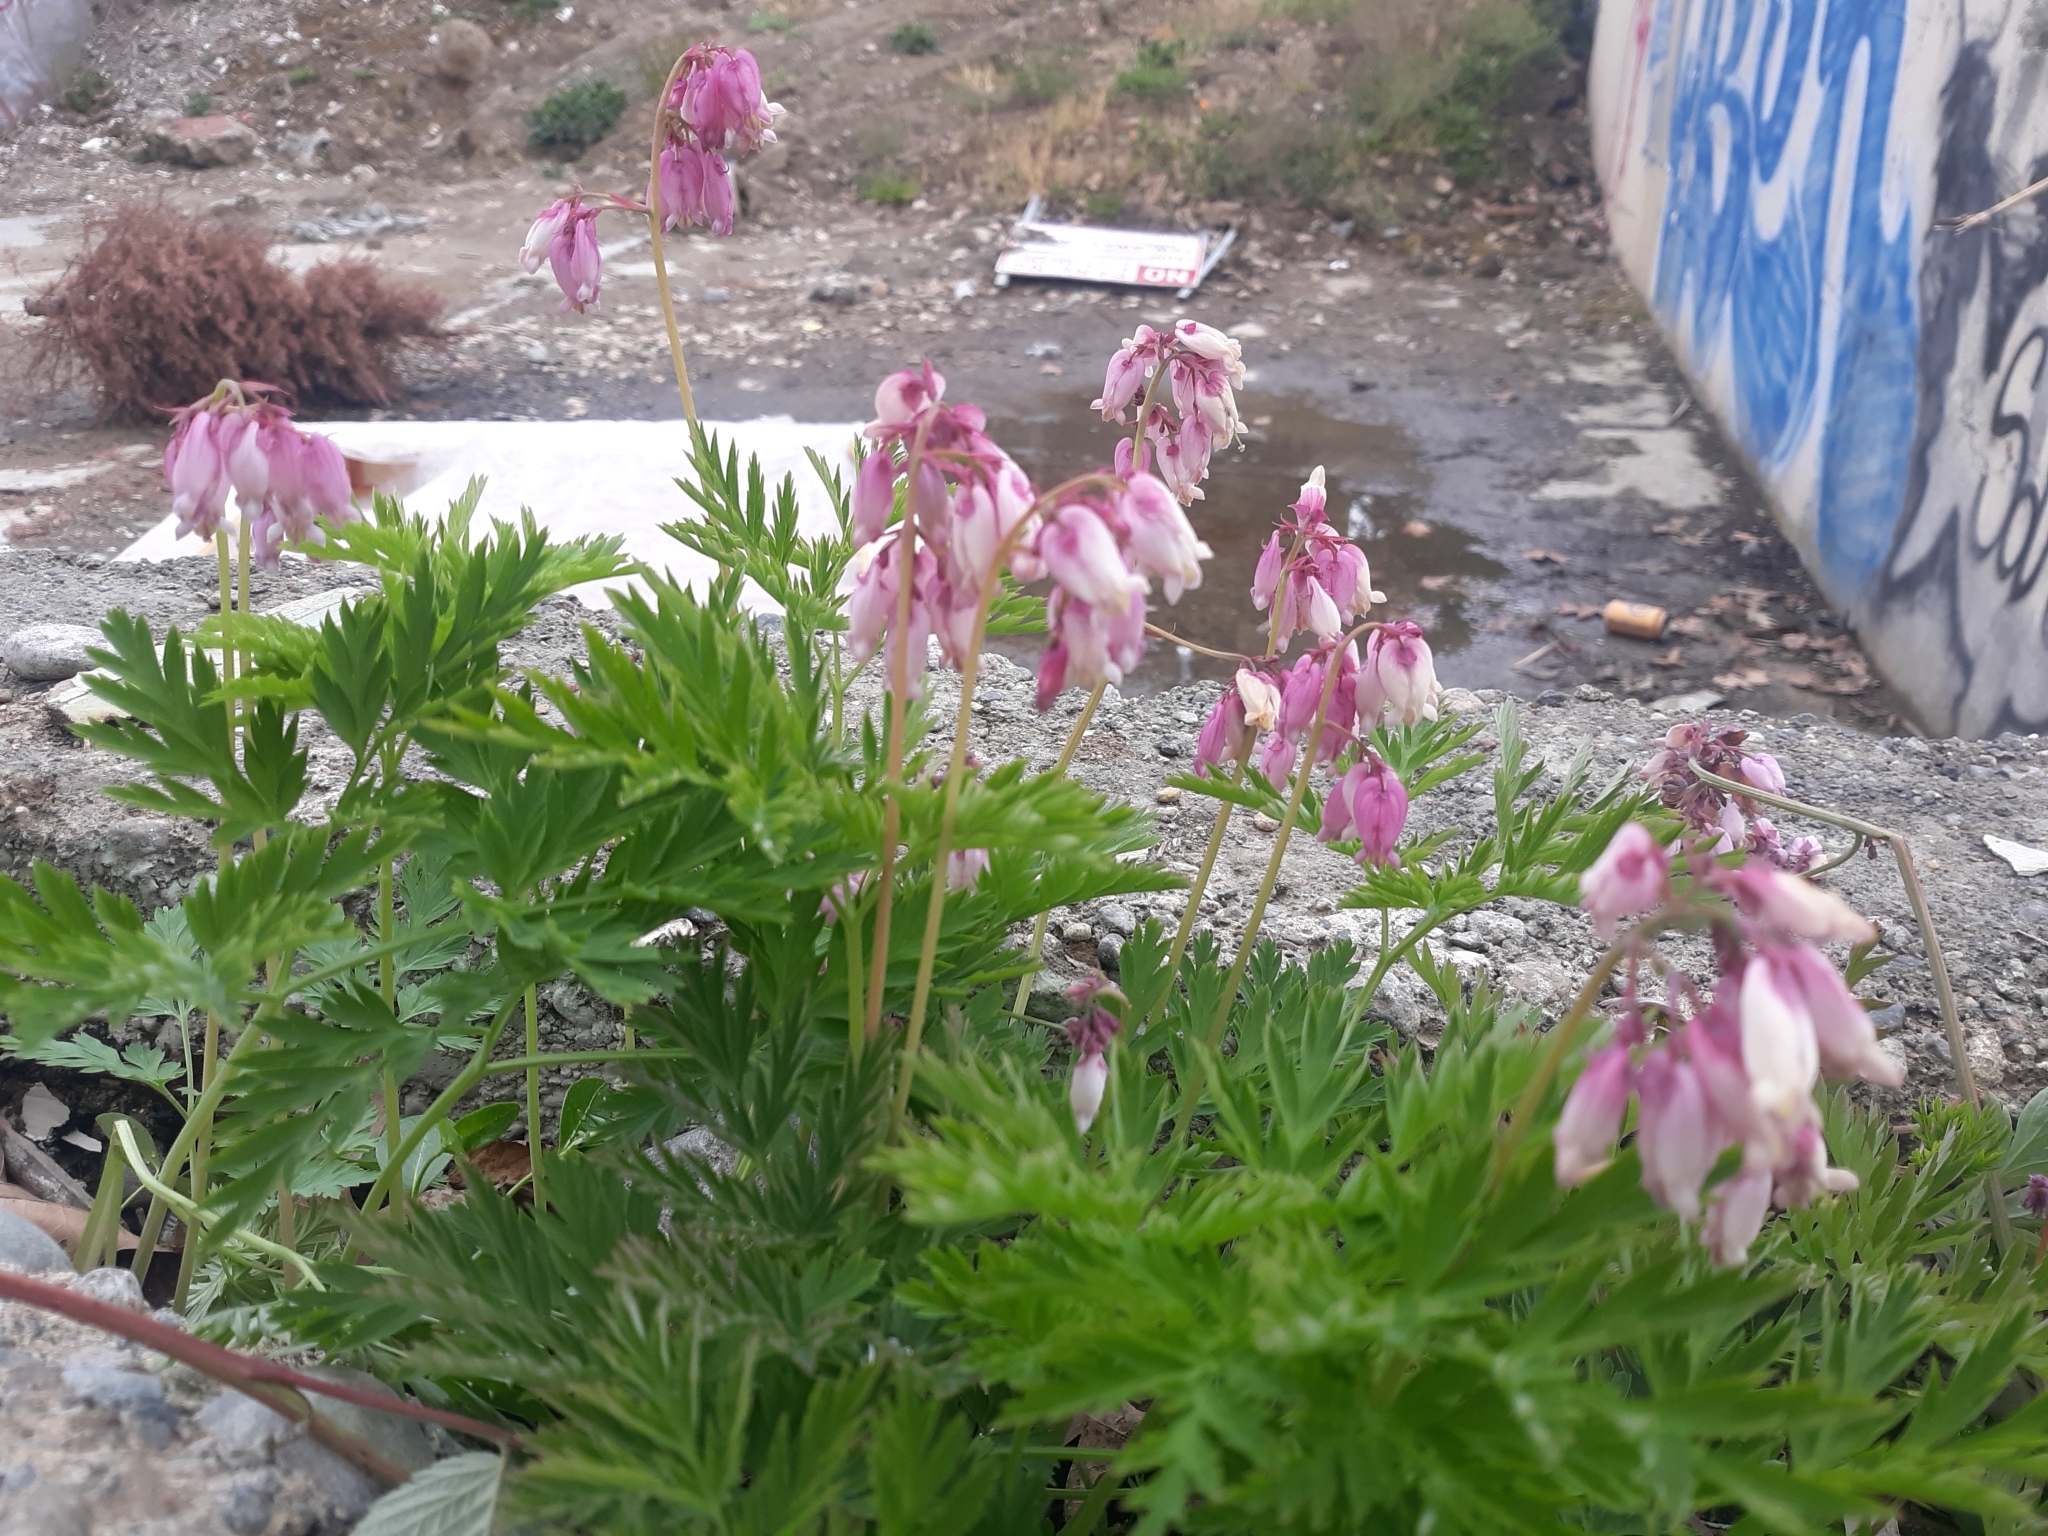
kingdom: Plantae
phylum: Tracheophyta
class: Magnoliopsida
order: Ranunculales
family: Papaveraceae
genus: Dicentra
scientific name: Dicentra formosa
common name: Bleeding-heart
